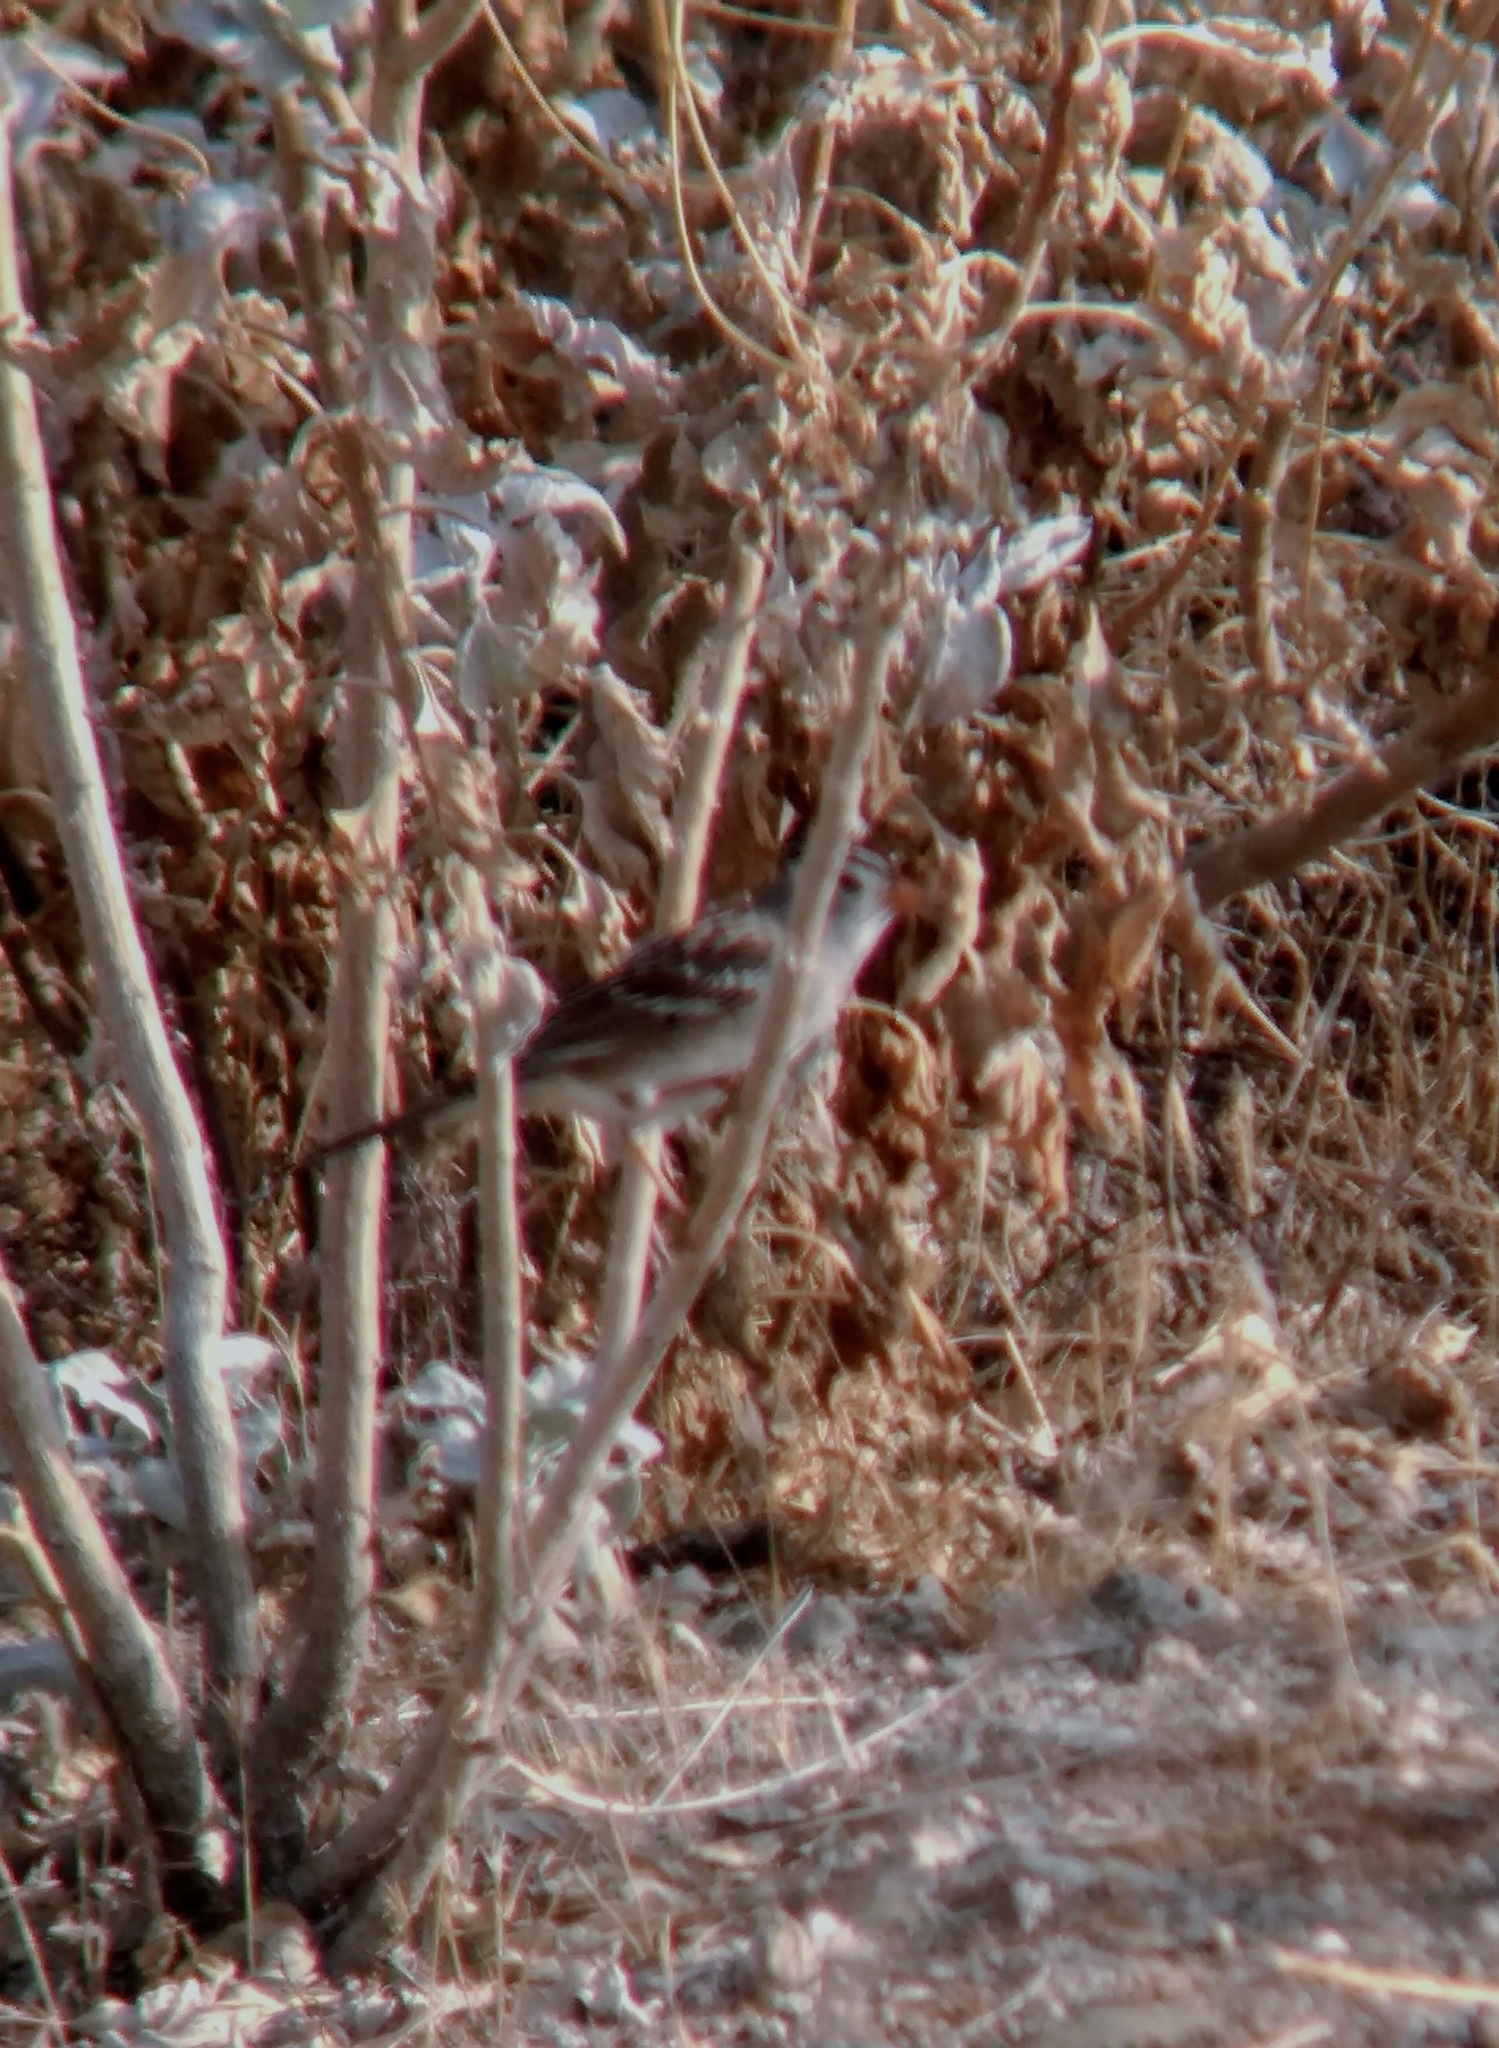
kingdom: Animalia
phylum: Chordata
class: Aves
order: Passeriformes
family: Passerellidae
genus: Zonotrichia
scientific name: Zonotrichia leucophrys
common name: White-crowned sparrow
